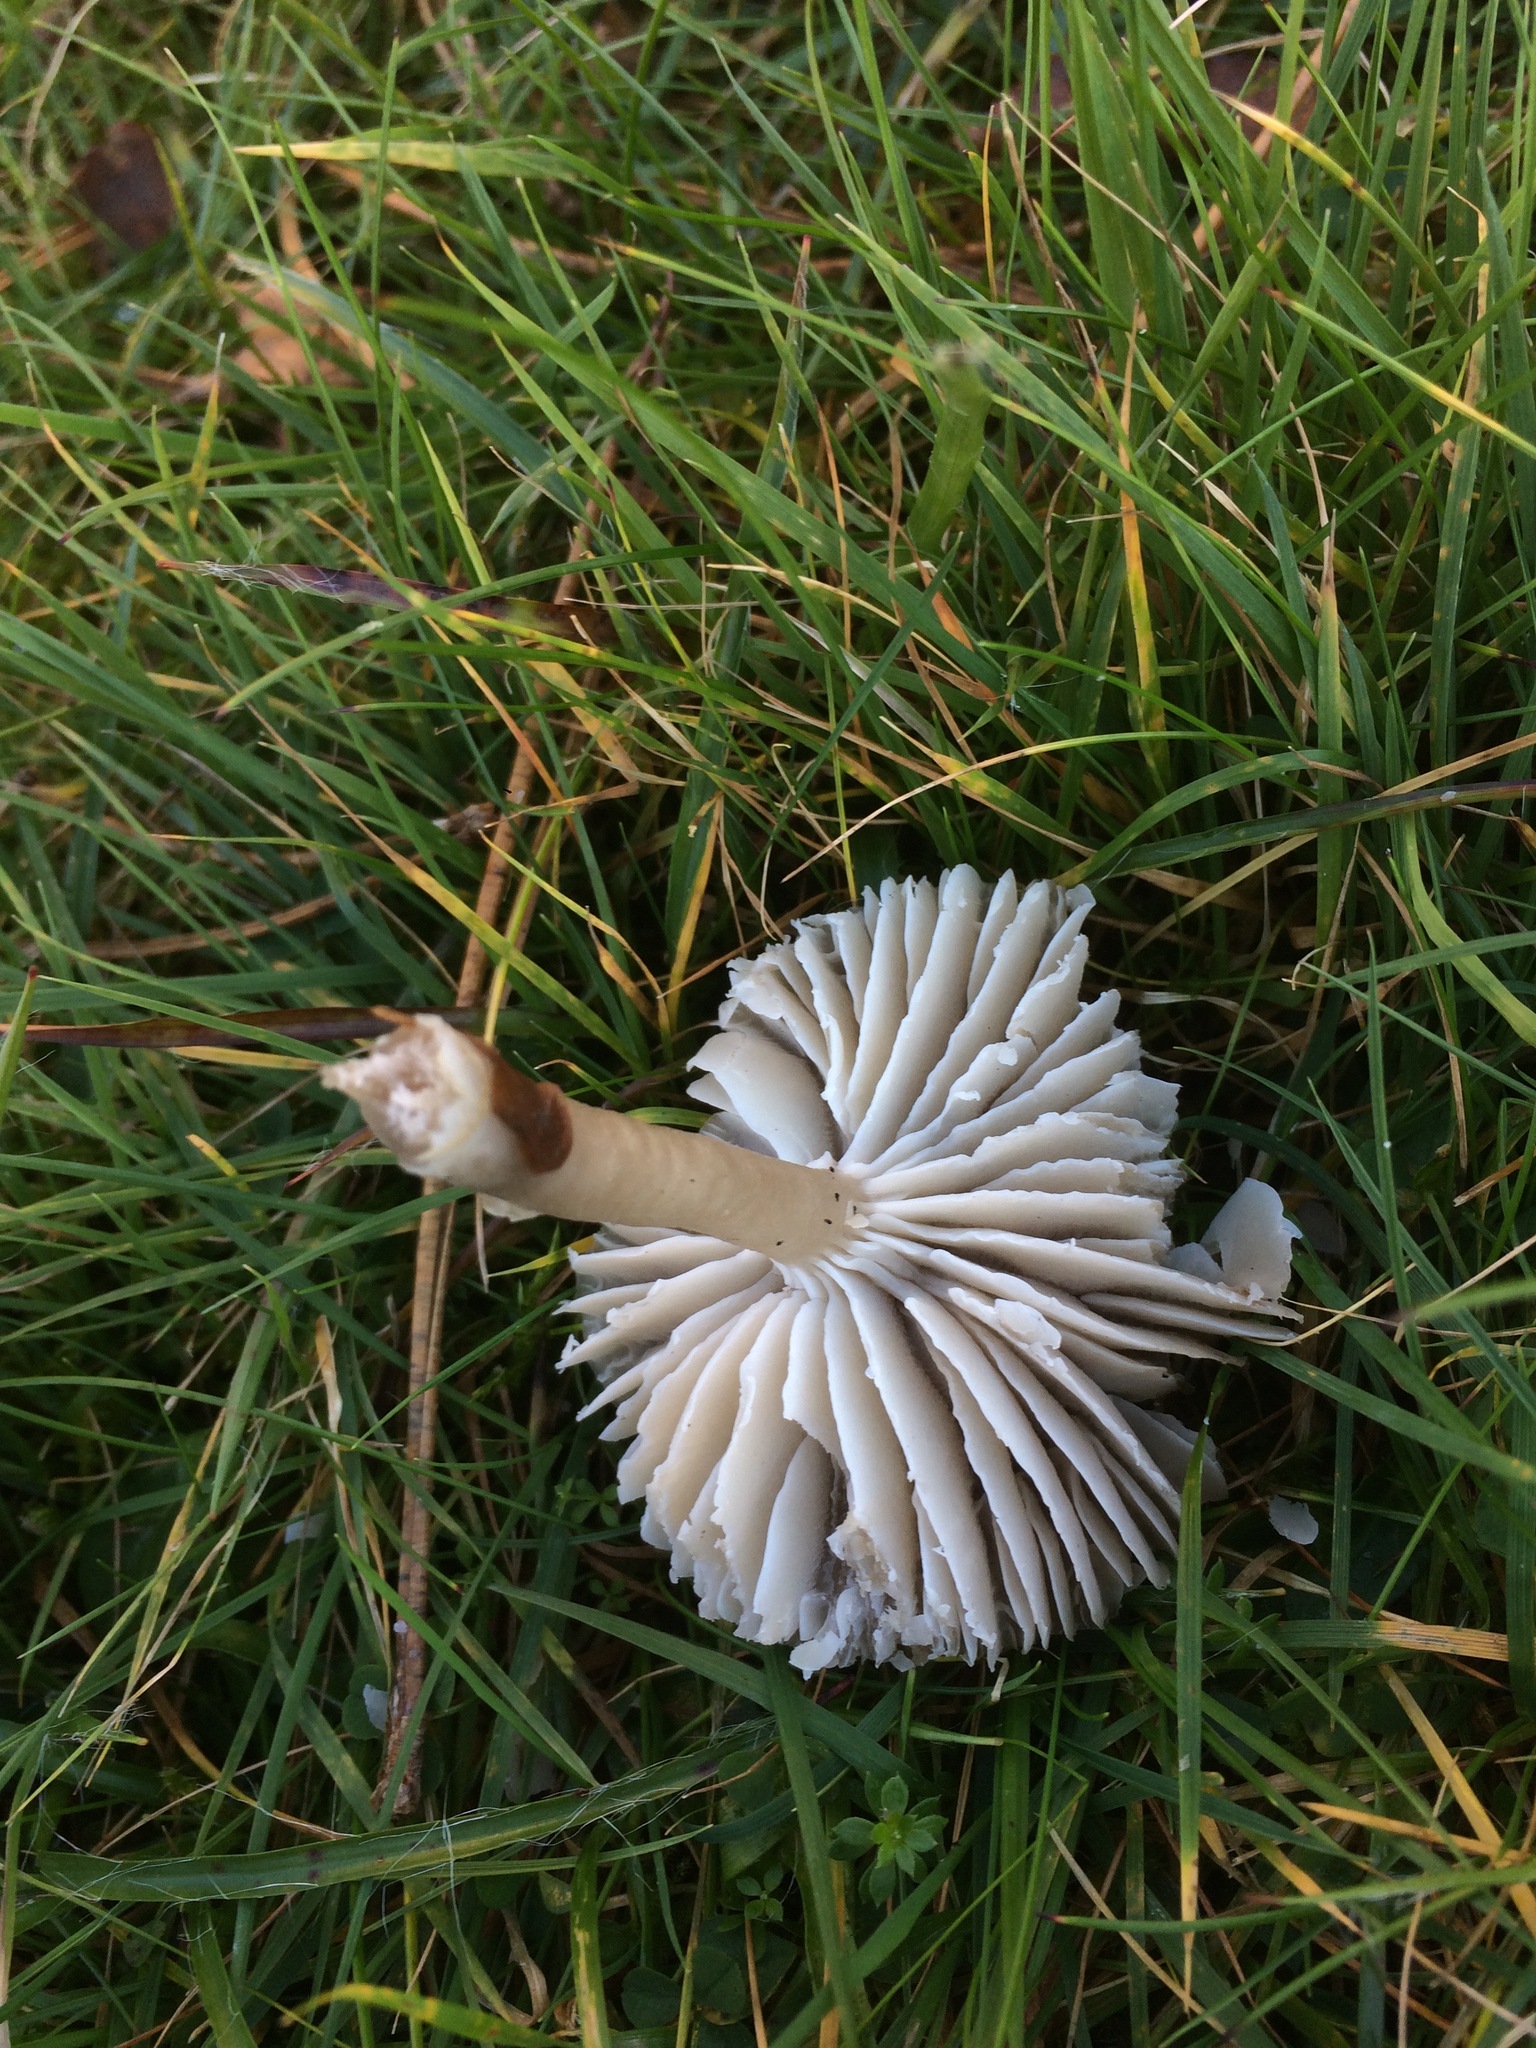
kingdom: Fungi
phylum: Basidiomycota
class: Agaricomycetes
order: Agaricales
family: Hygrophoraceae
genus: Gliophorus
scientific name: Gliophorus irrigatus
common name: Slimy waxcap
